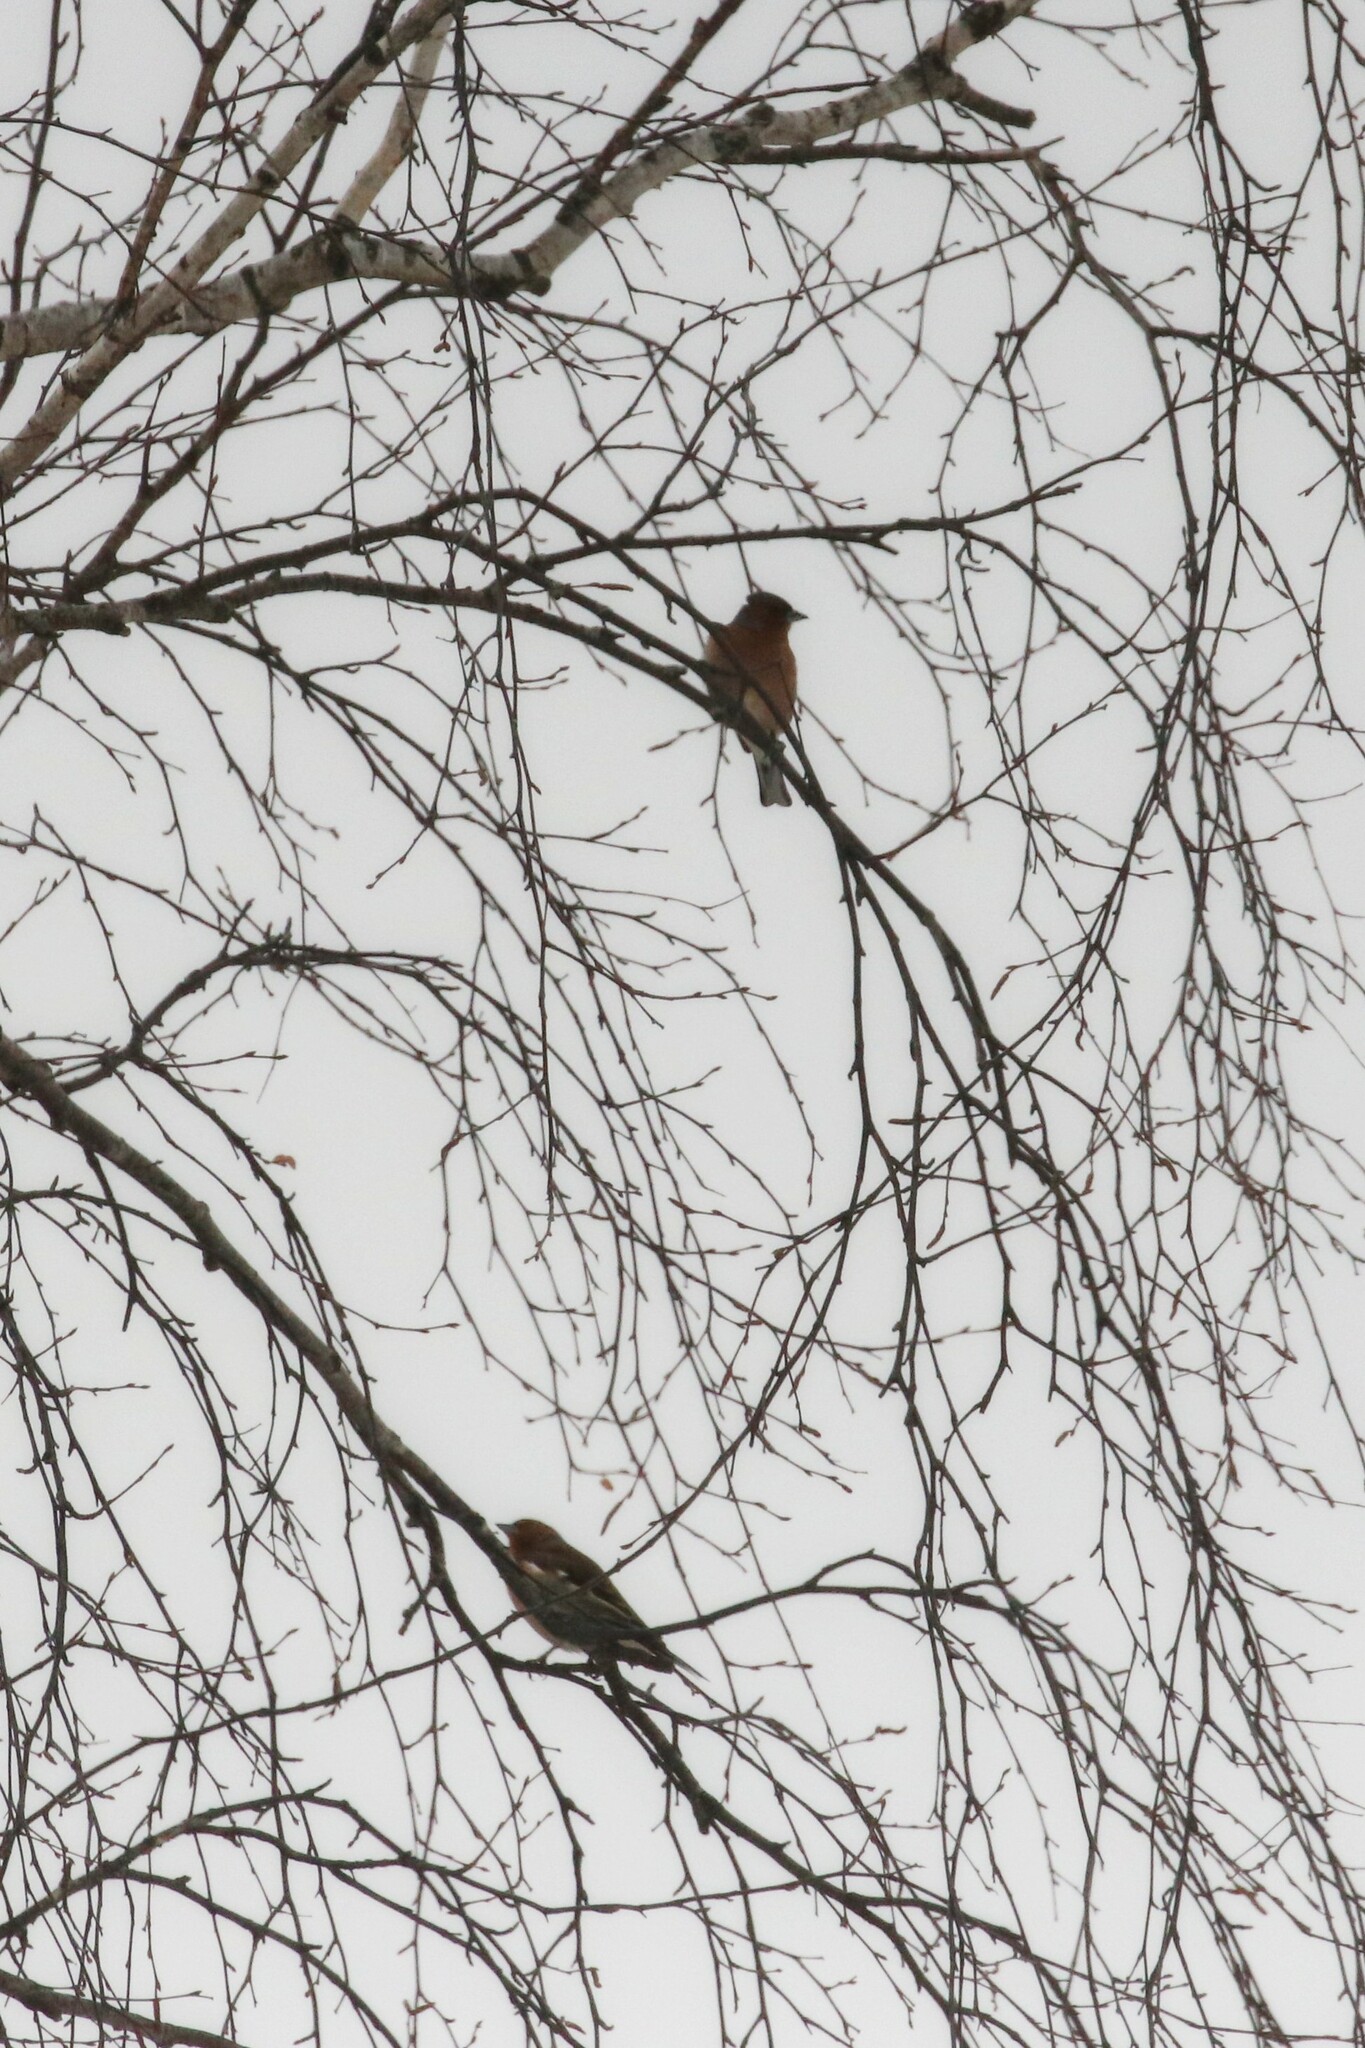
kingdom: Animalia
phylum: Chordata
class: Aves
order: Passeriformes
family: Fringillidae
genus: Fringilla
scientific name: Fringilla coelebs
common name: Common chaffinch
